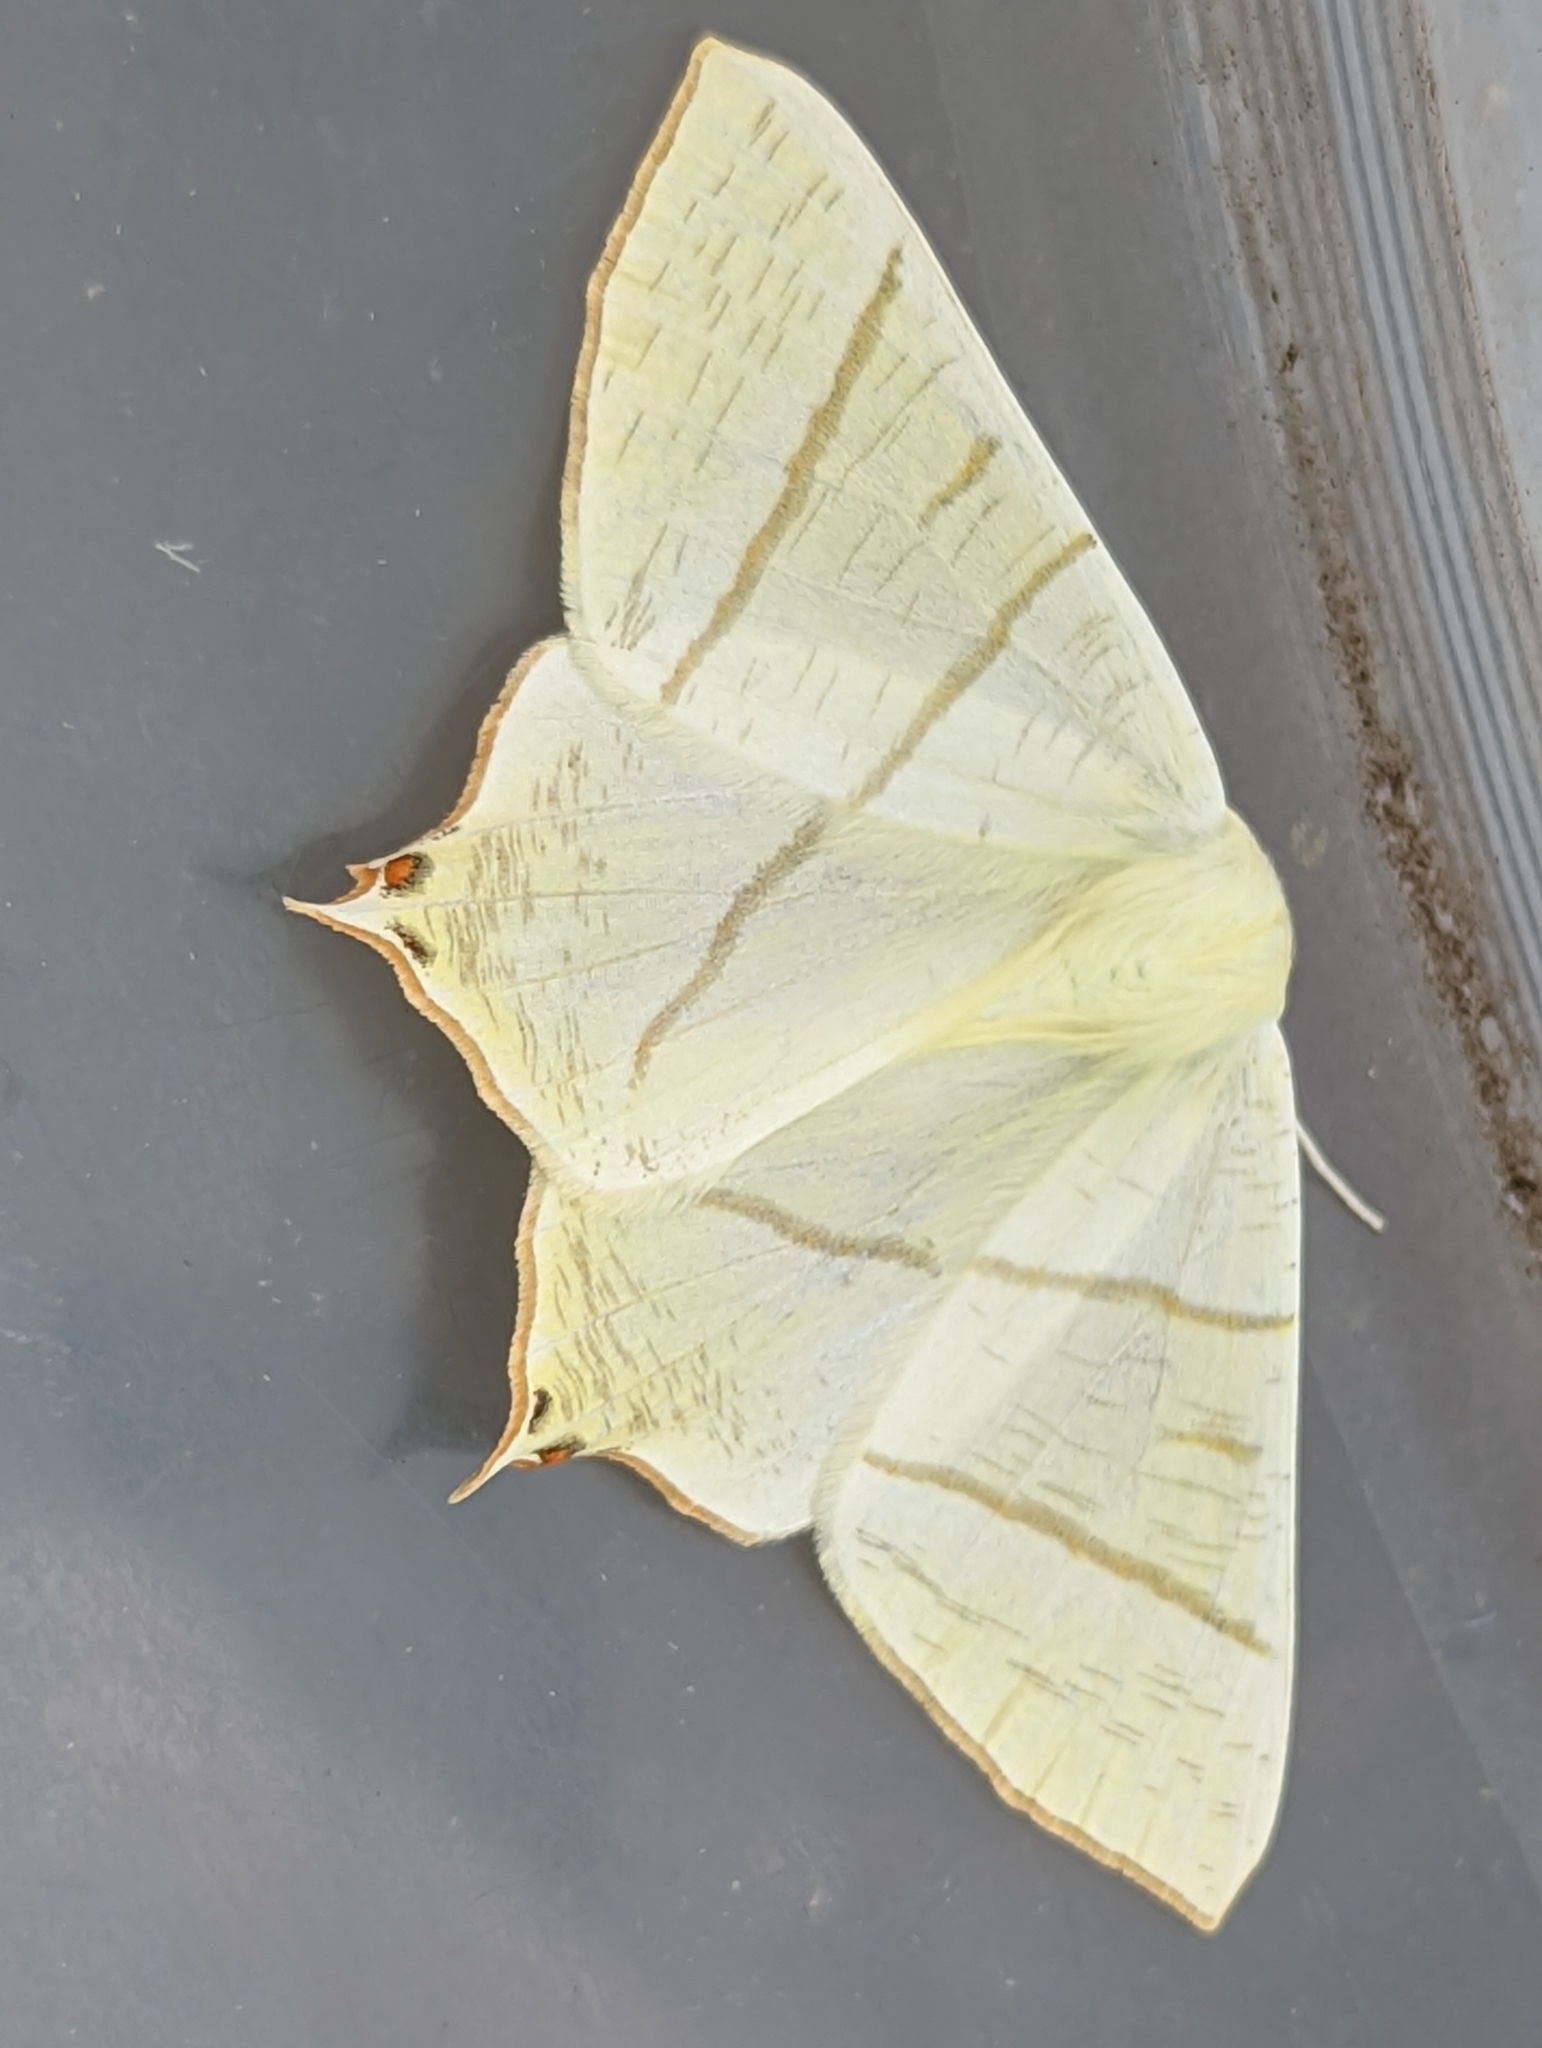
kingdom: Animalia
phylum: Arthropoda
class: Insecta
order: Lepidoptera
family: Geometridae
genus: Ourapteryx
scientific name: Ourapteryx sambucaria
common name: Swallow-tailed moth
